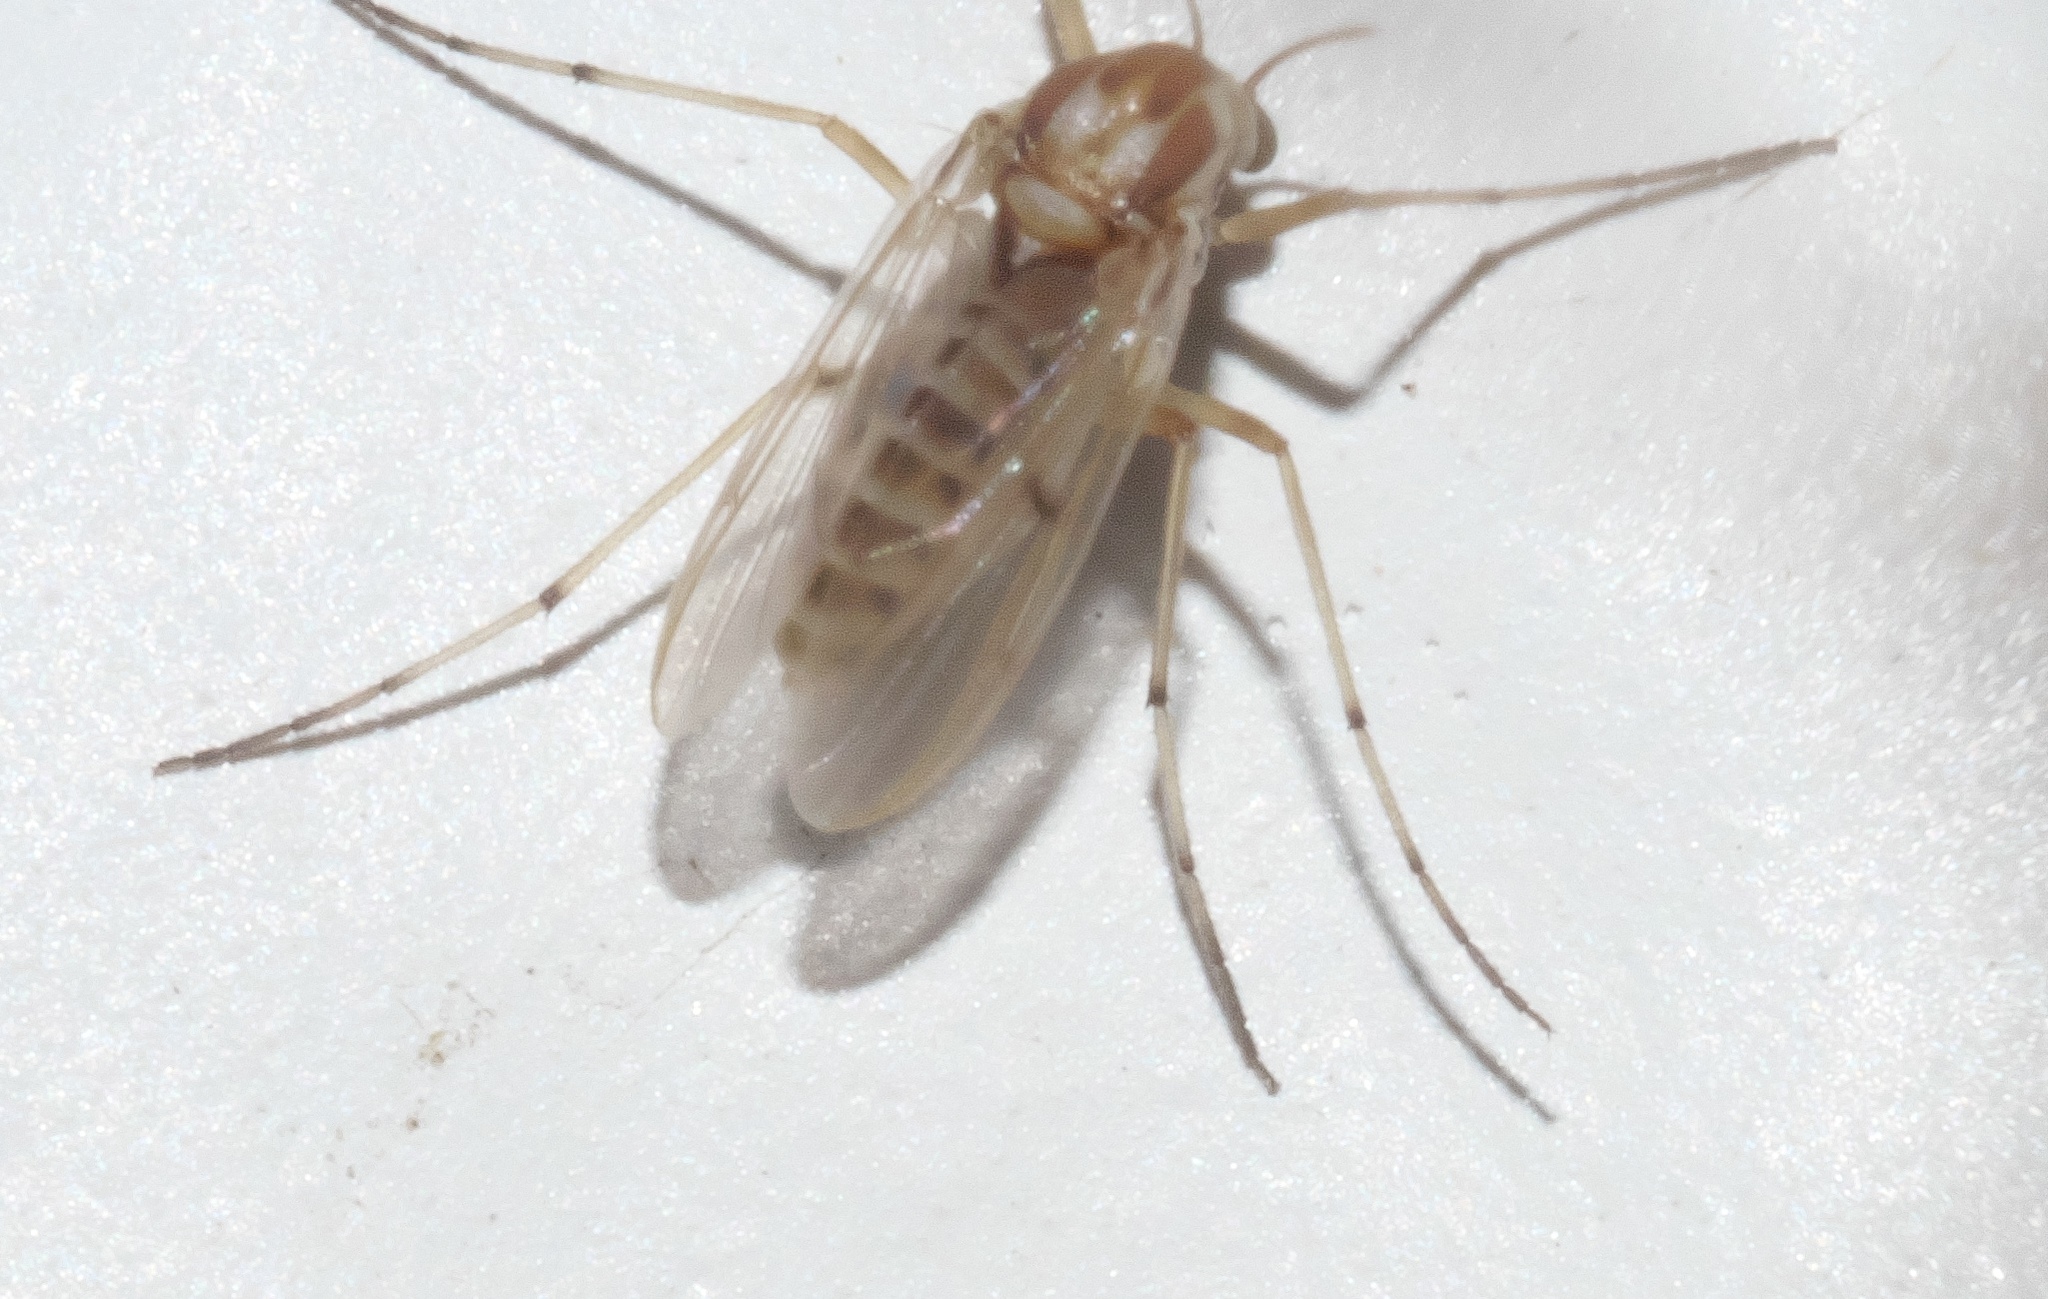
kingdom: Animalia
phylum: Arthropoda
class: Insecta
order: Diptera
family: Chironomidae
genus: Procladius
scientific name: Procladius bellus
